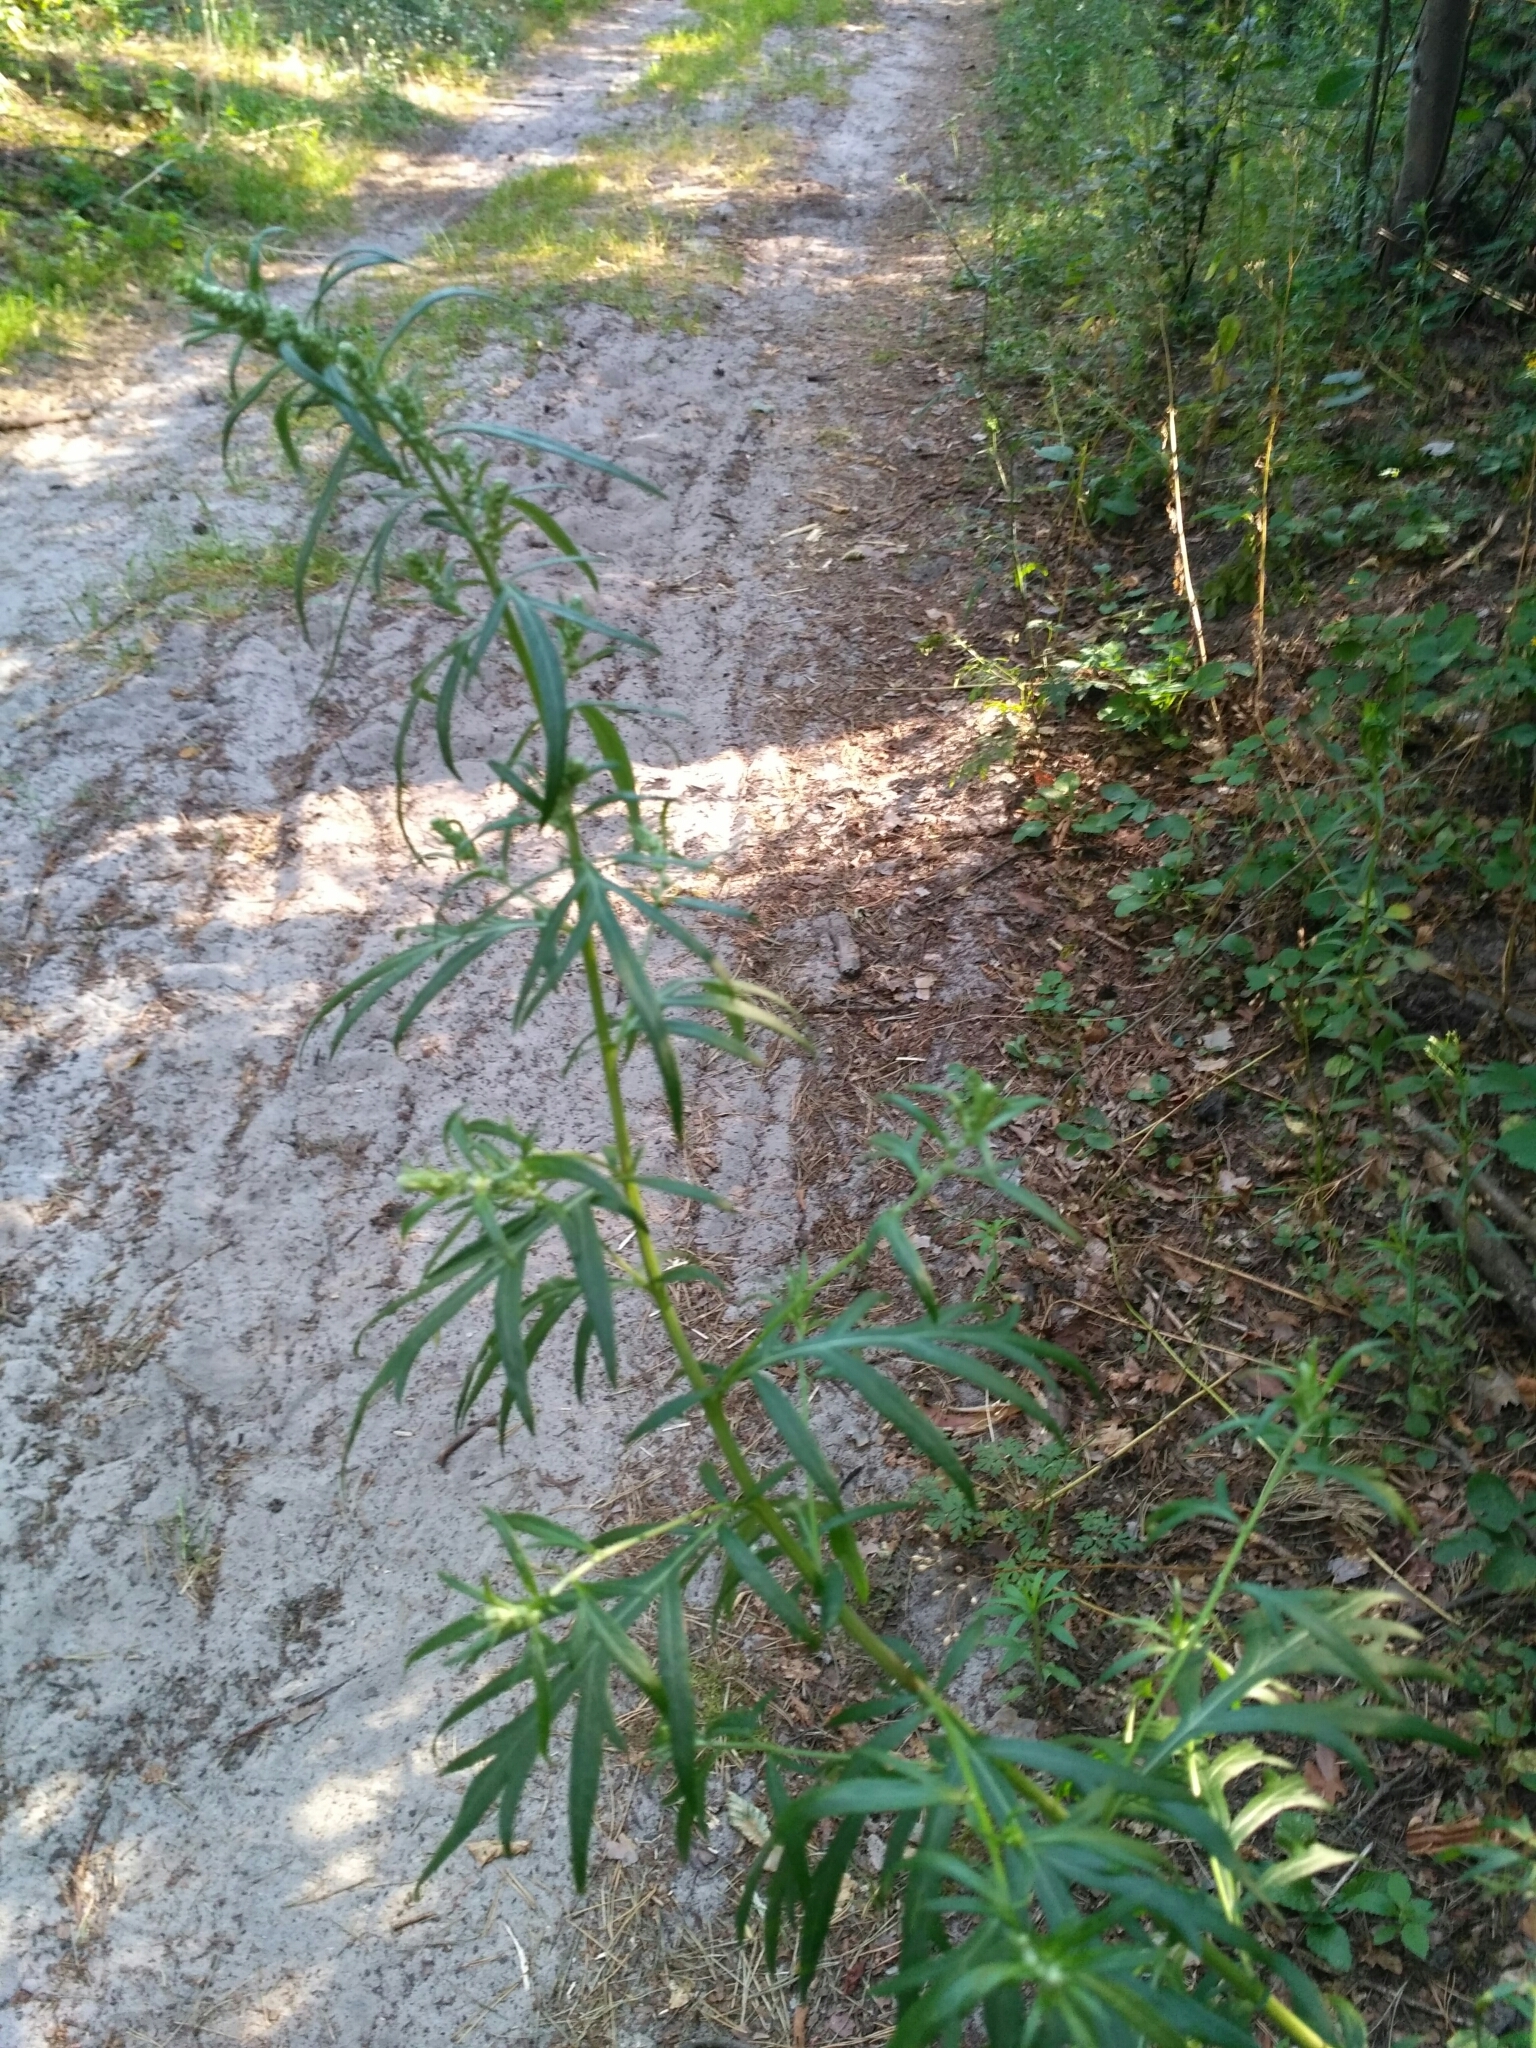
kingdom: Plantae
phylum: Tracheophyta
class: Magnoliopsida
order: Asterales
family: Asteraceae
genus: Artemisia
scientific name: Artemisia vulgaris
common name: Mugwort
